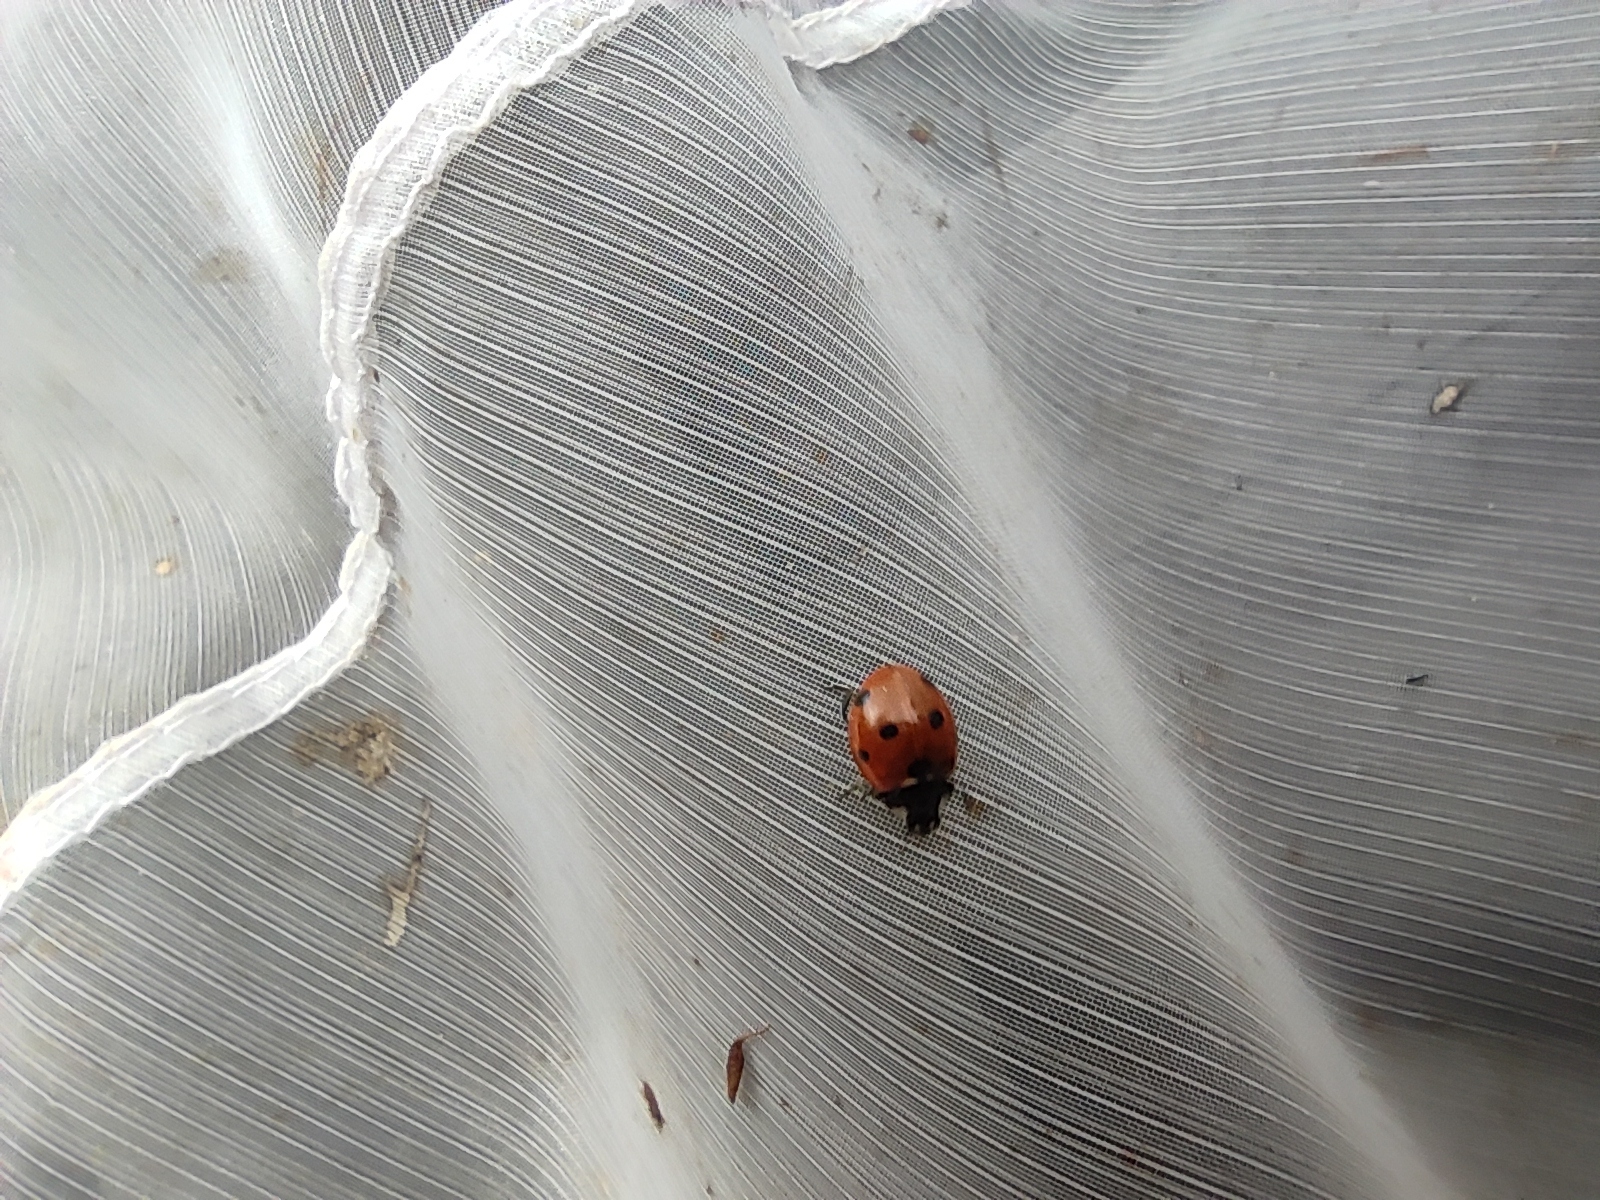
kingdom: Animalia
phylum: Arthropoda
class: Insecta
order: Coleoptera
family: Coccinellidae
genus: Coccinella
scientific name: Coccinella septempunctata
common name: Sevenspotted lady beetle
